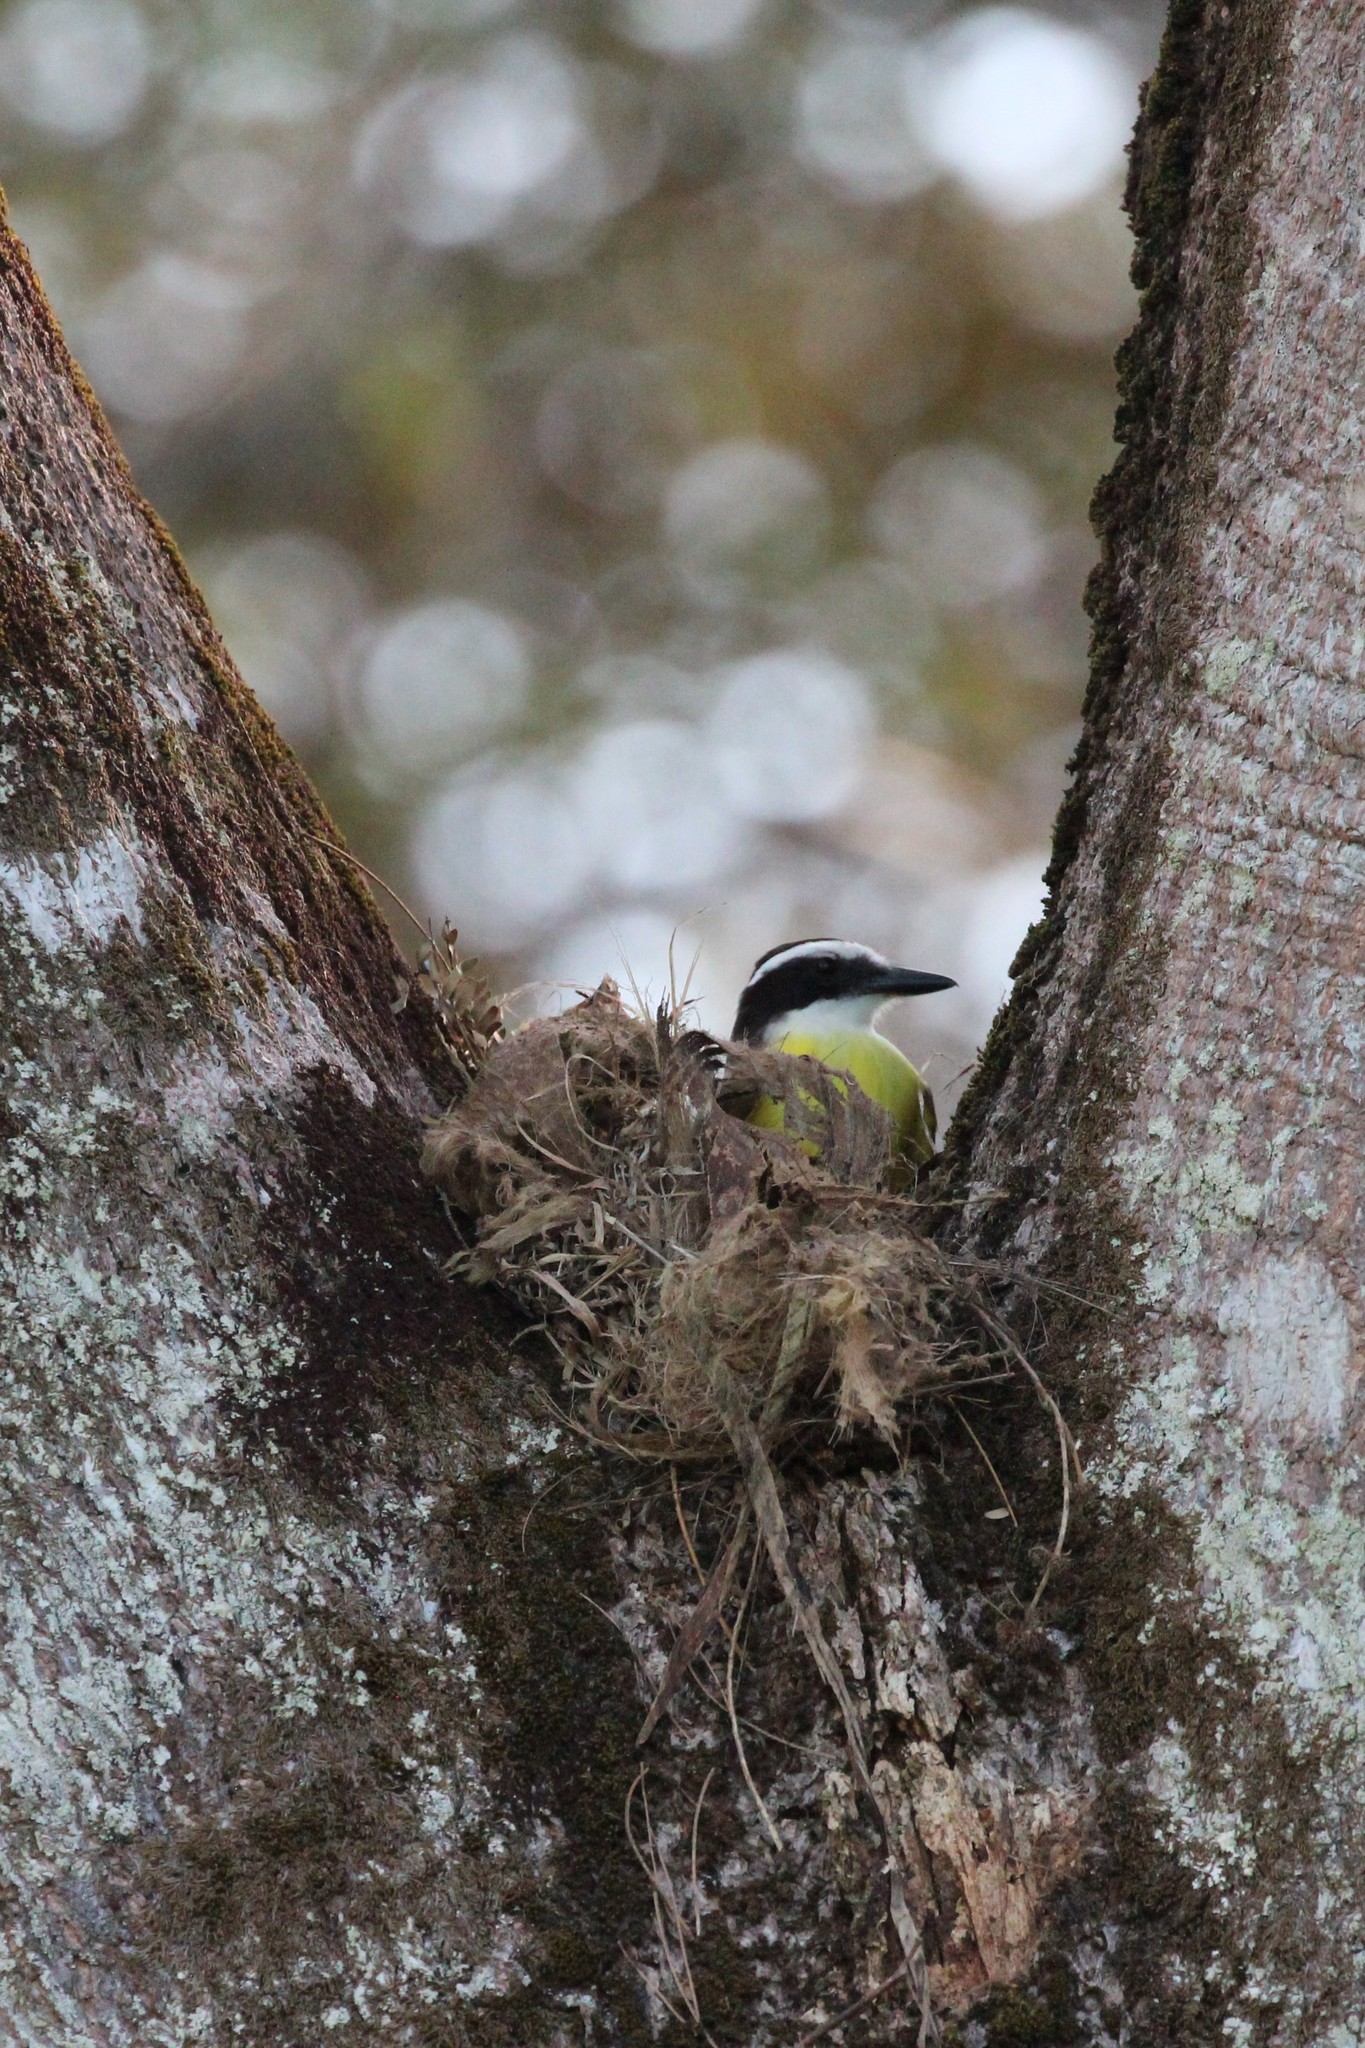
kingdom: Animalia
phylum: Chordata
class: Aves
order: Passeriformes
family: Tyrannidae
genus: Pitangus
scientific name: Pitangus sulphuratus
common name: Great kiskadee
